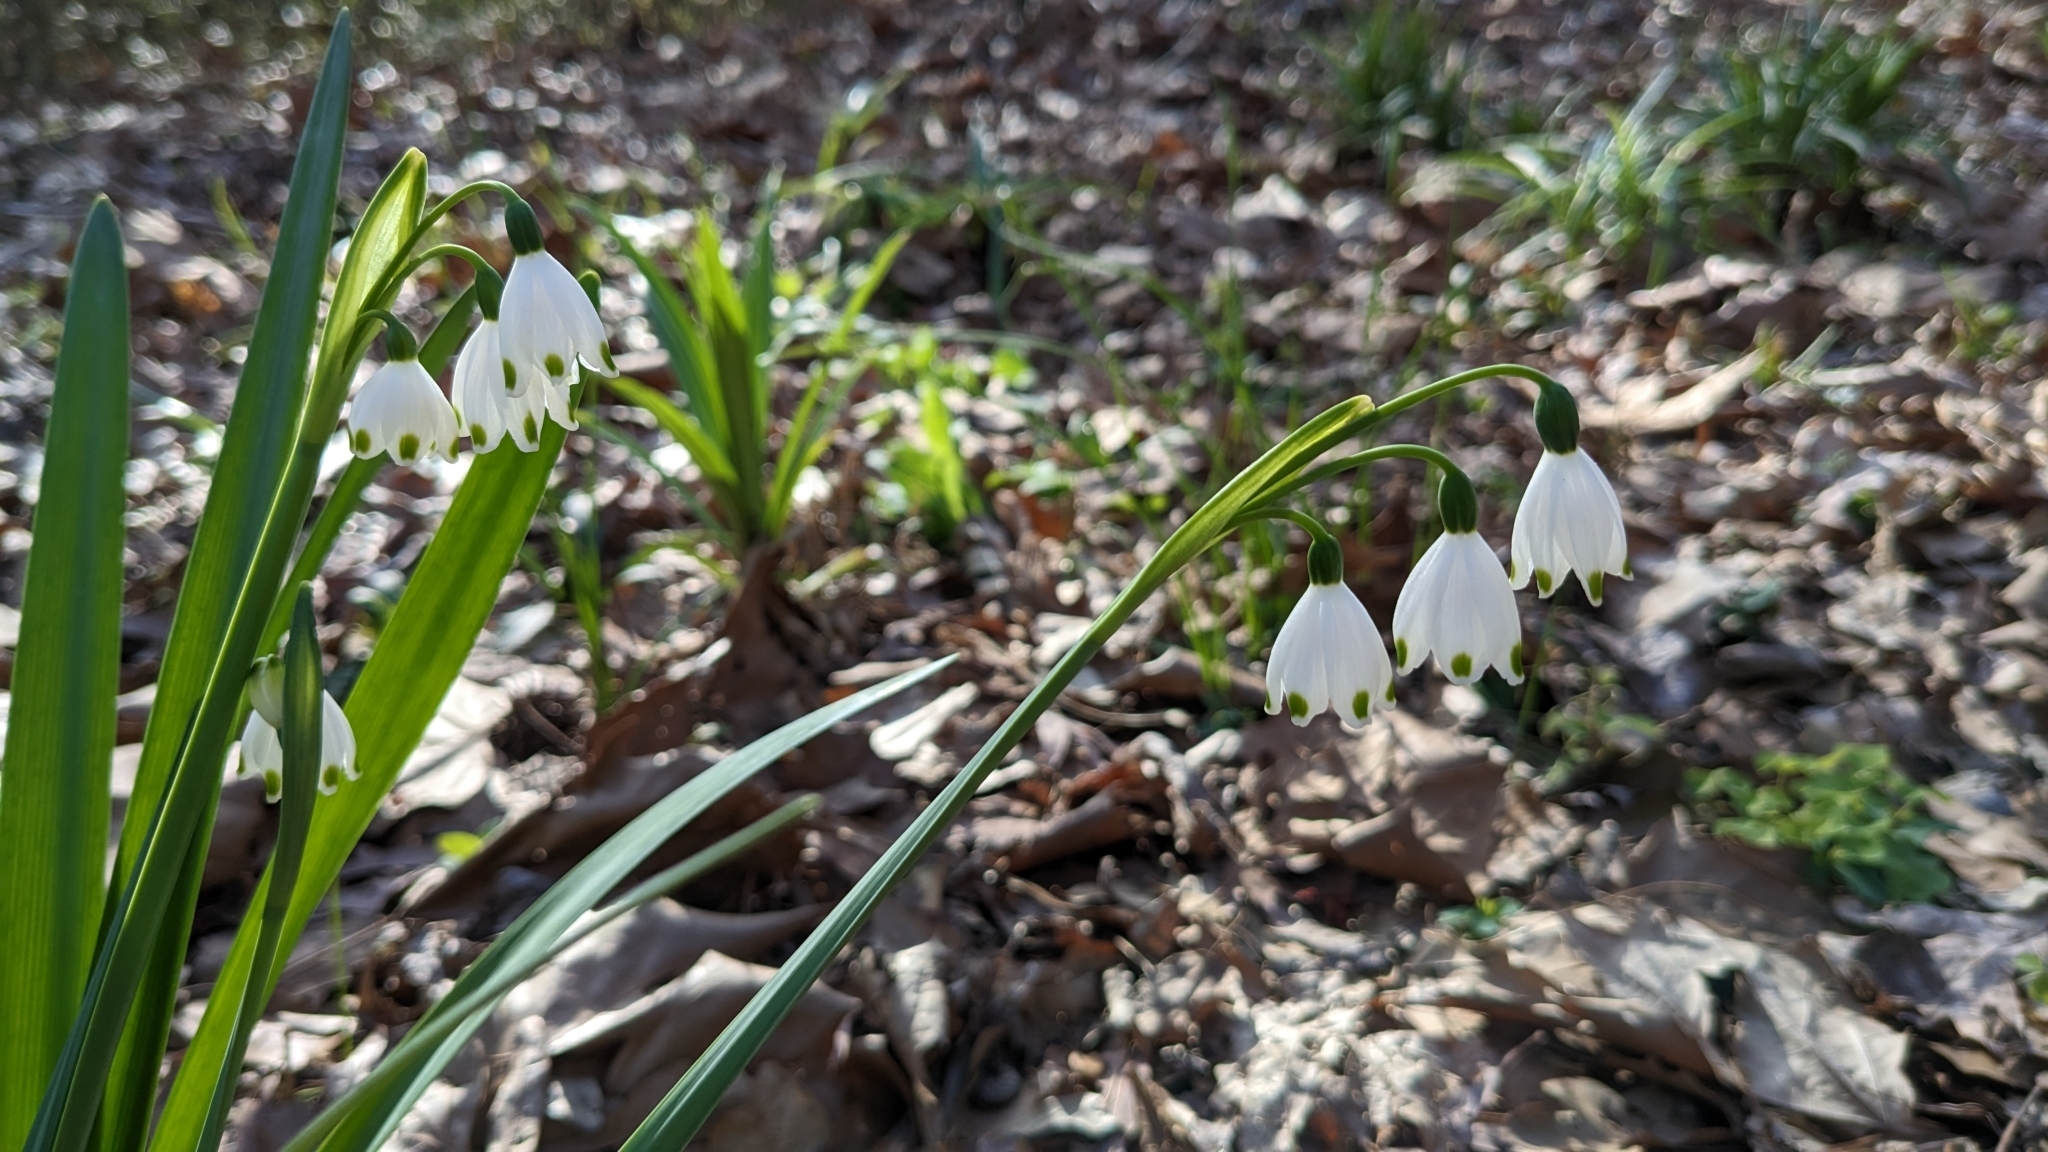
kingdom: Plantae
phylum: Tracheophyta
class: Liliopsida
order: Asparagales
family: Amaryllidaceae
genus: Leucojum
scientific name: Leucojum aestivum
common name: Summer snowflake
